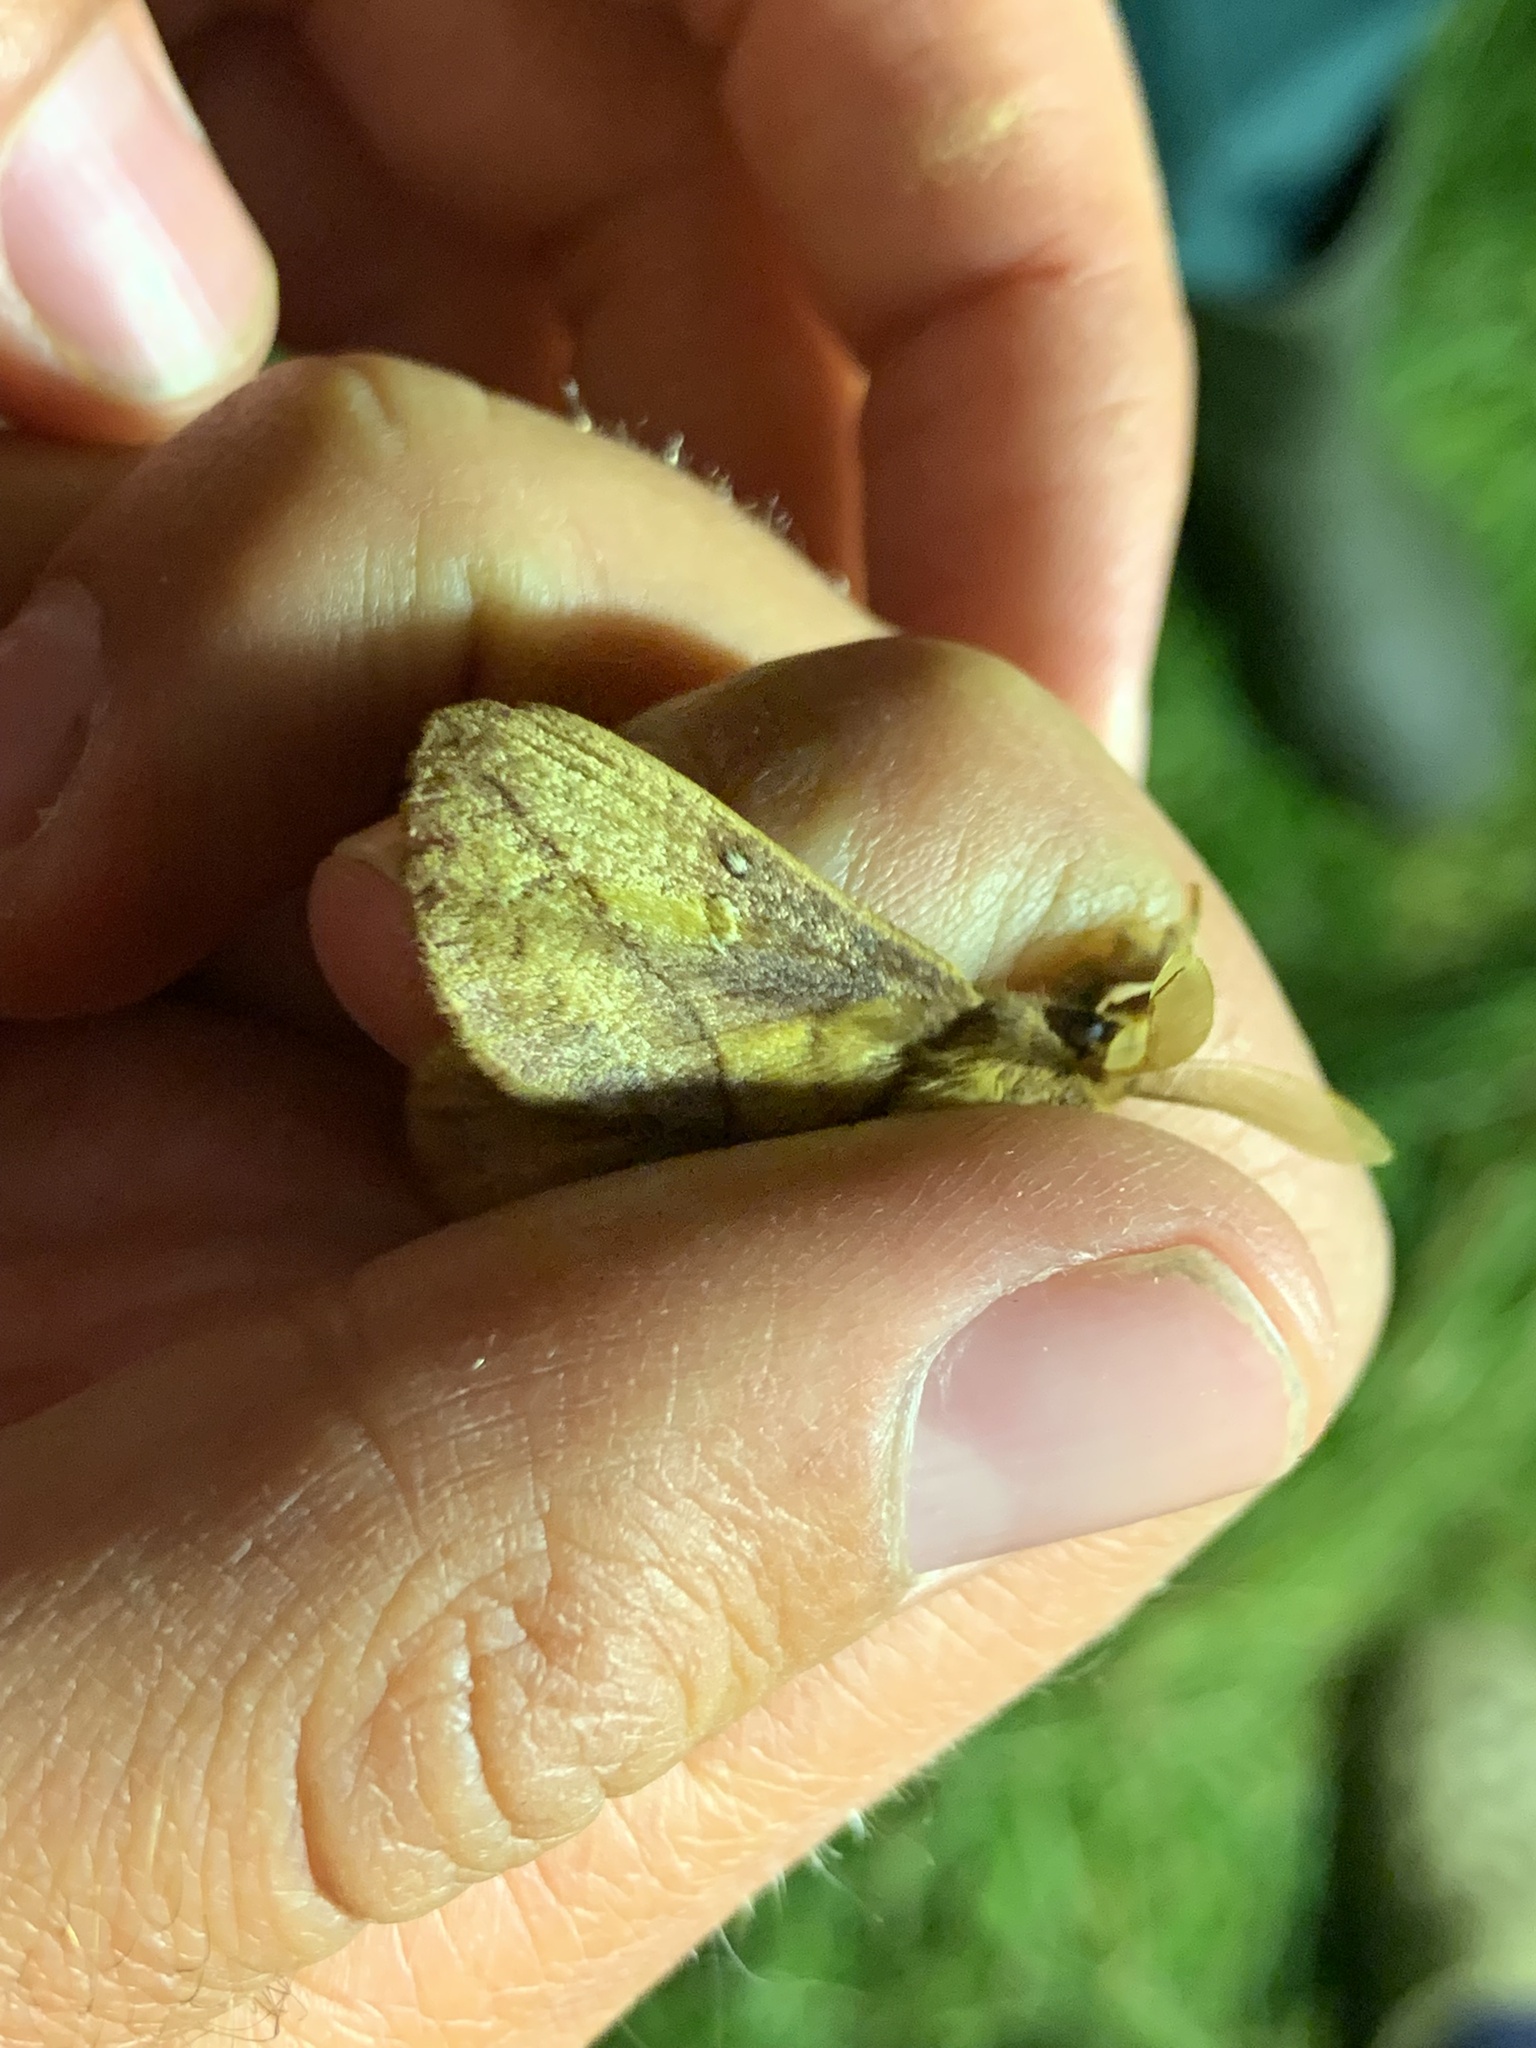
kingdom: Animalia
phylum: Arthropoda
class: Insecta
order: Lepidoptera
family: Lasiocampidae
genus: Euthrix
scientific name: Euthrix potatoria
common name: Drinker
